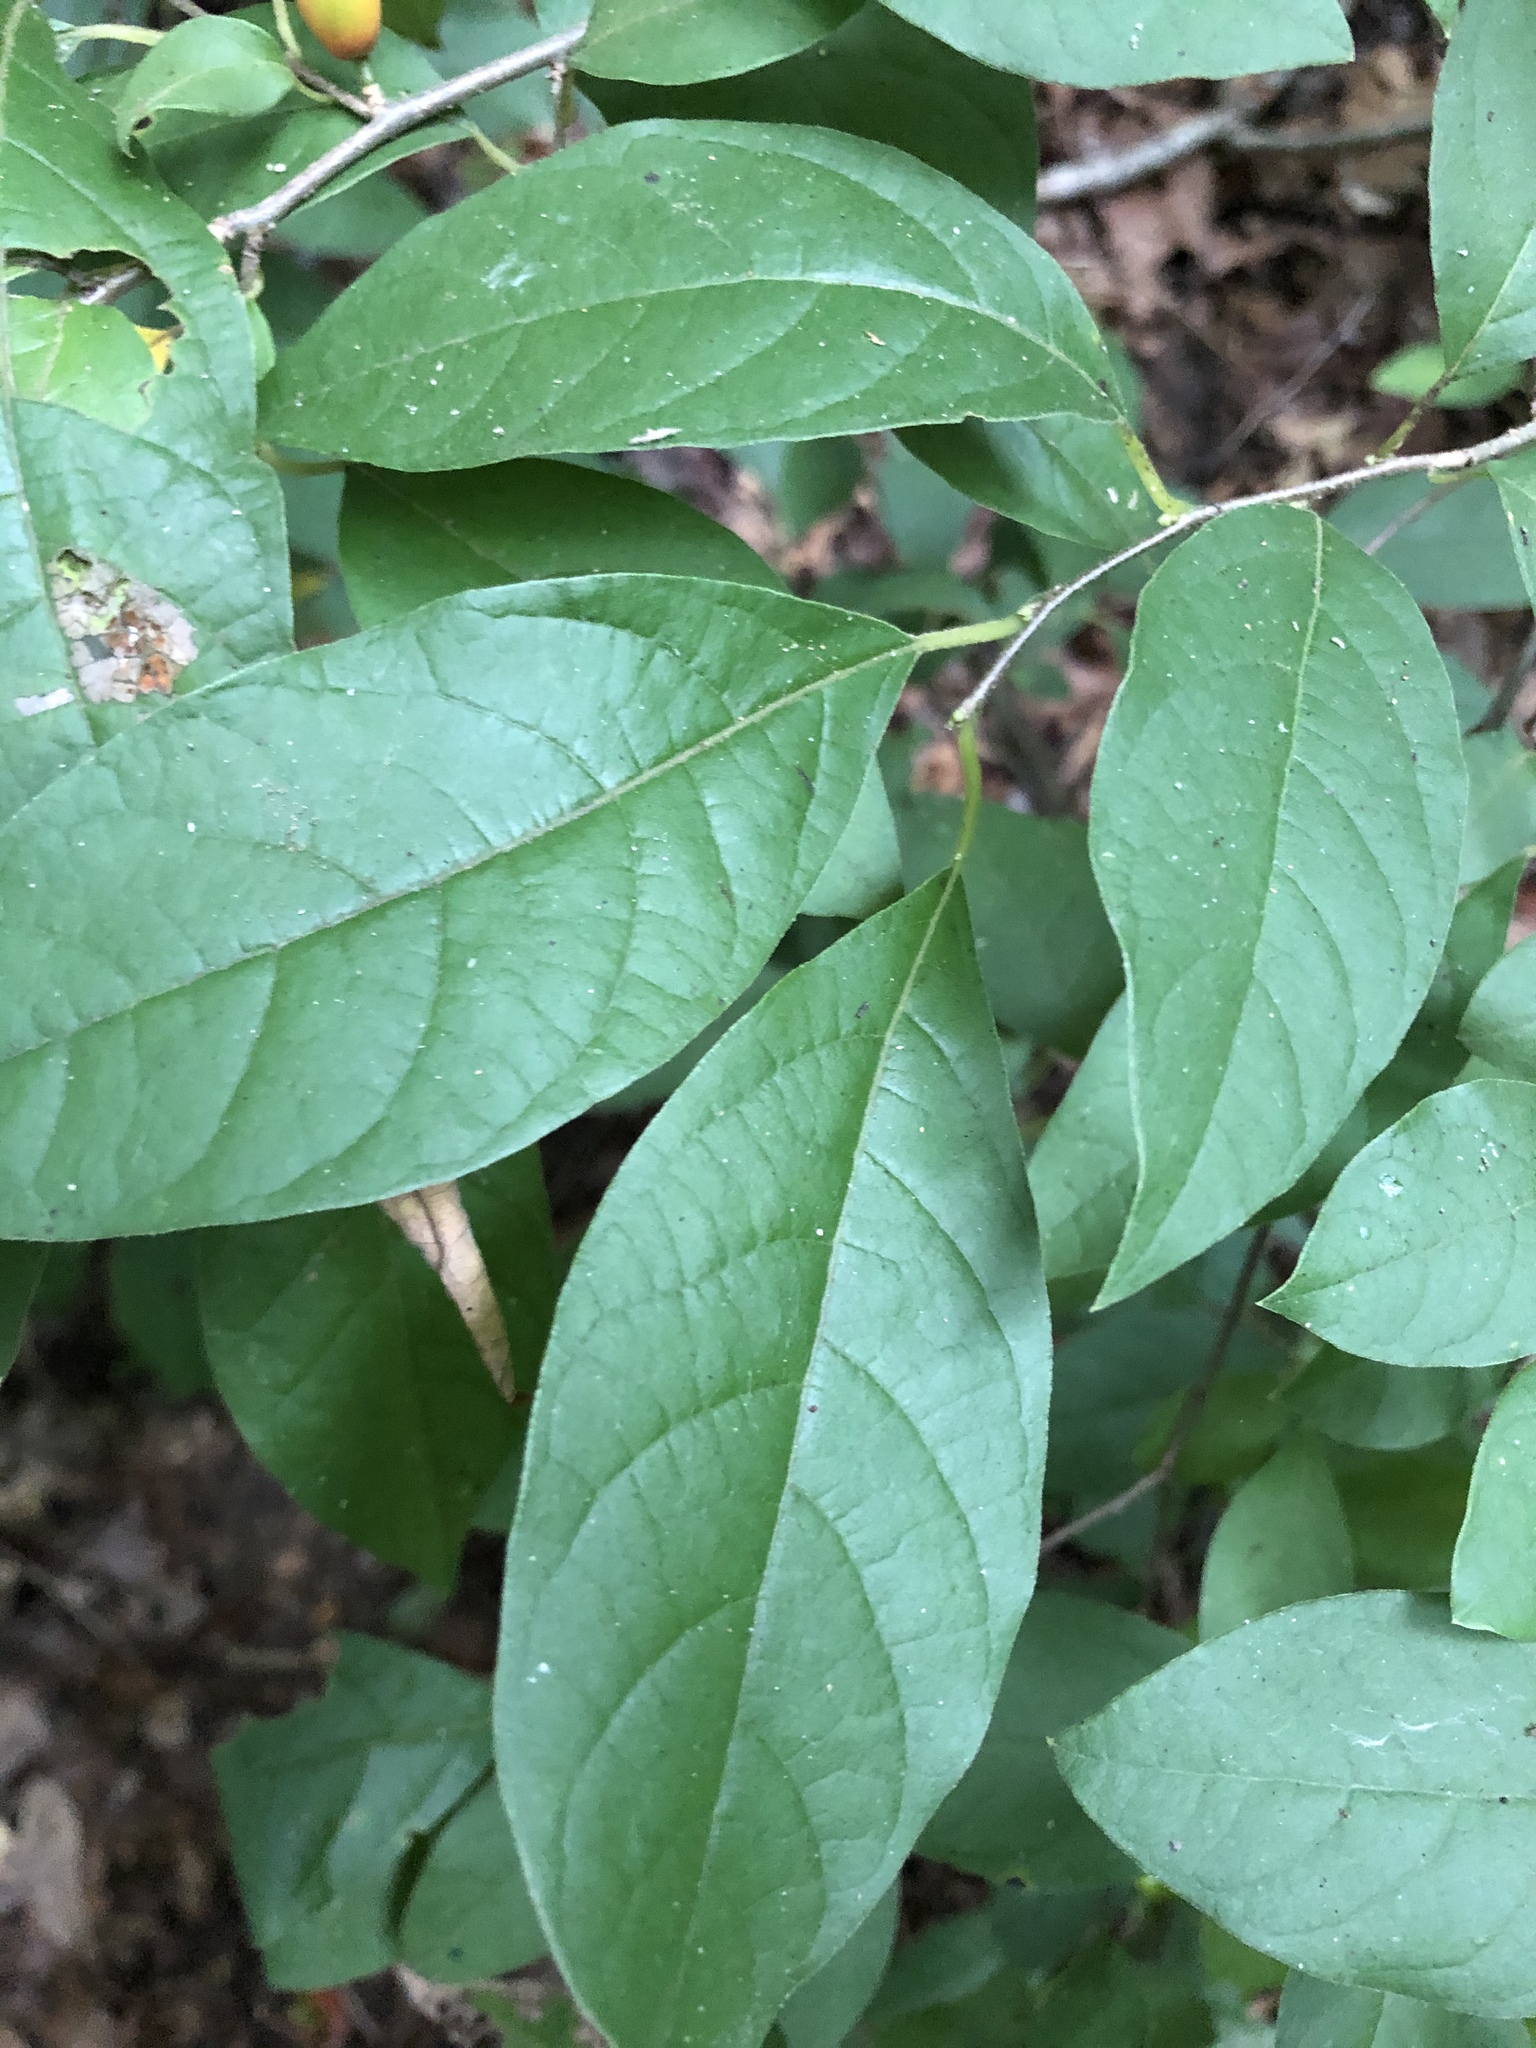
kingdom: Plantae
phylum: Tracheophyta
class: Magnoliopsida
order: Laurales
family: Lauraceae
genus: Lindera
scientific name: Lindera benzoin
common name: Spicebush
